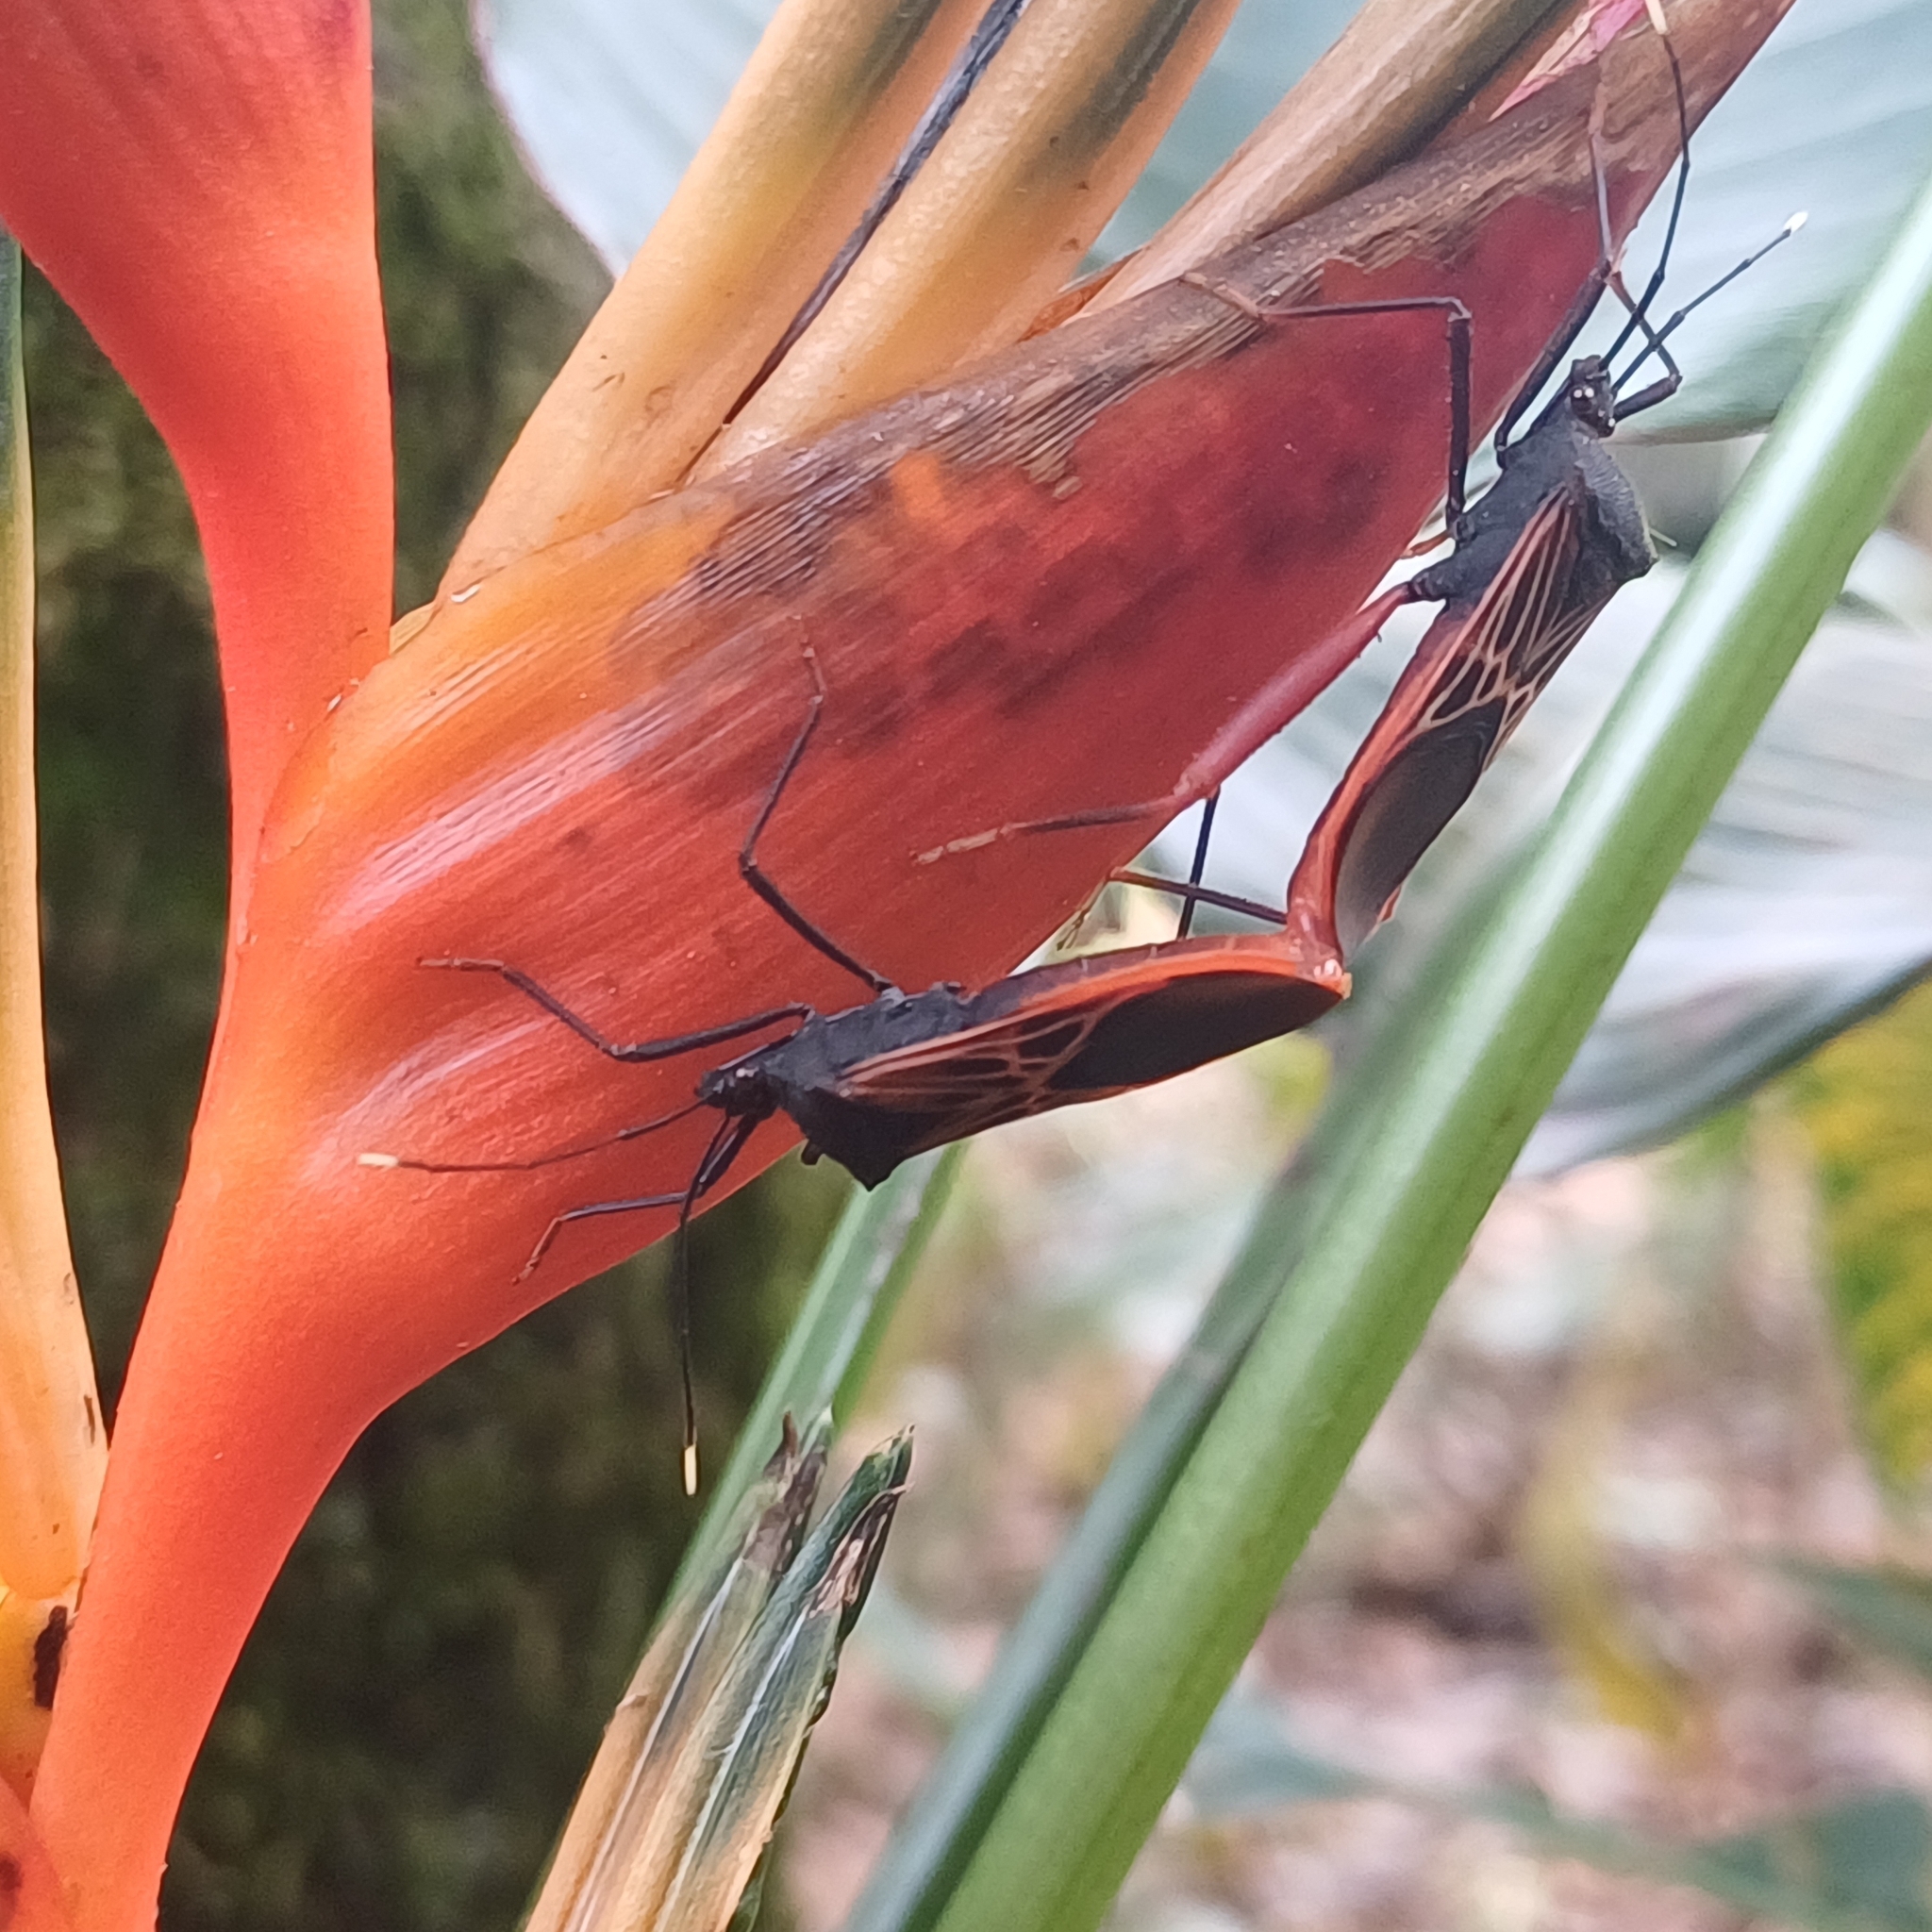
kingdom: Animalia
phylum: Arthropoda
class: Insecta
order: Hemiptera
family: Coreidae
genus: Leptoscelis
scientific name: Leptoscelis excellens
